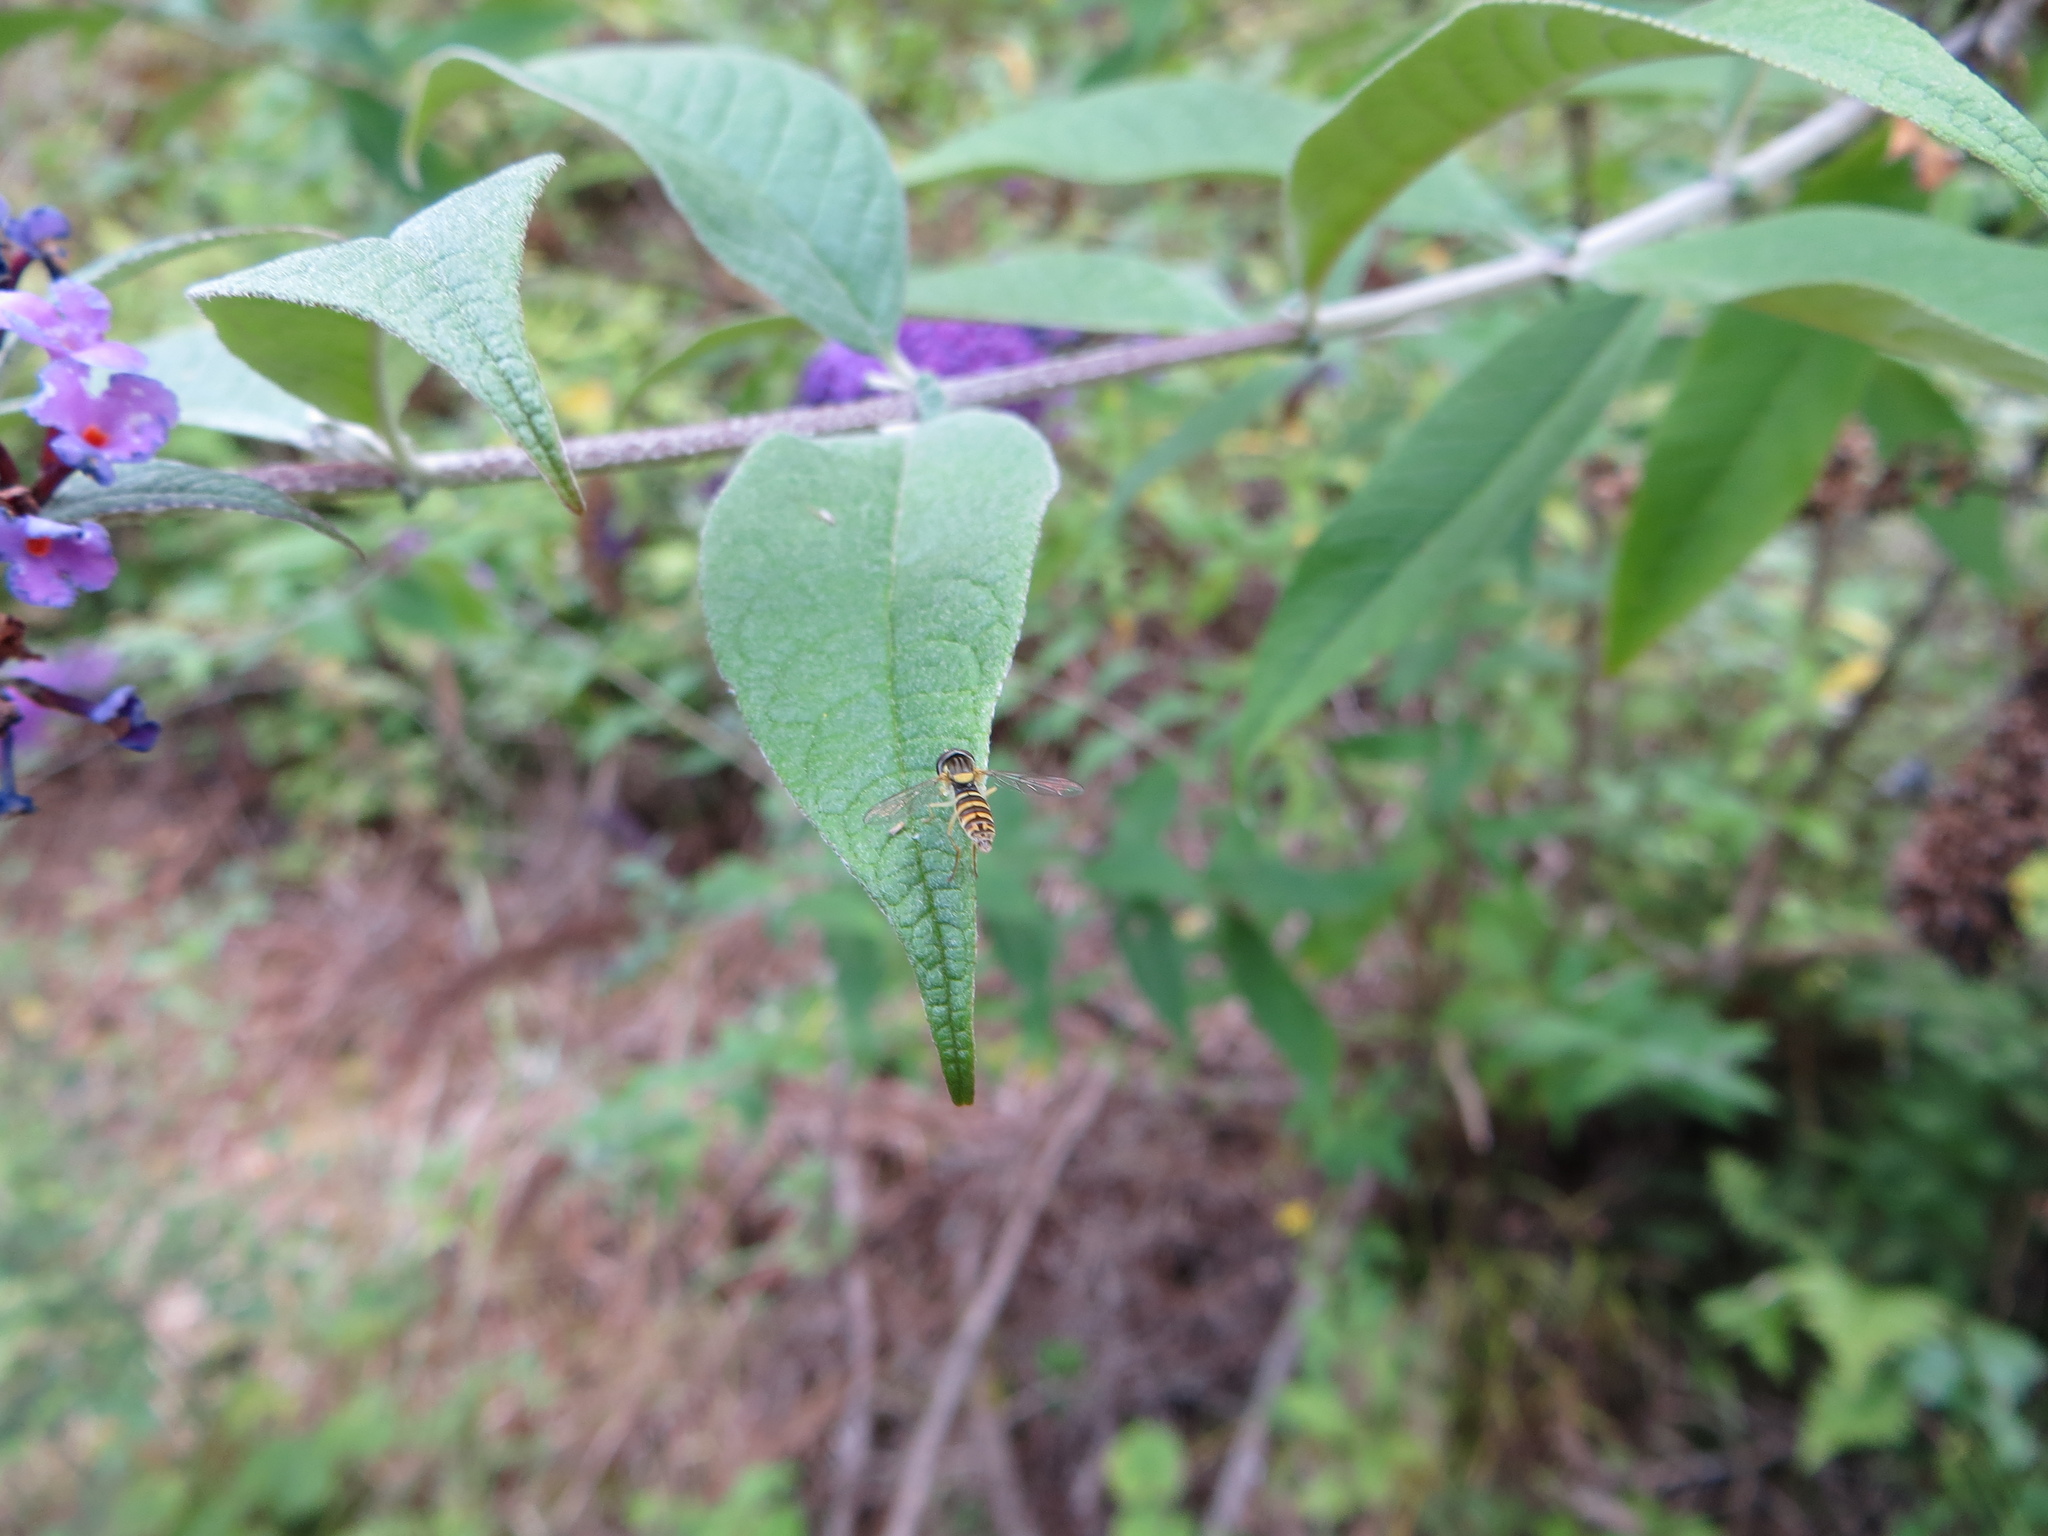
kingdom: Animalia
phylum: Arthropoda
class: Insecta
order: Diptera
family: Syrphidae
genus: Sphaerophoria
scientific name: Sphaerophoria
